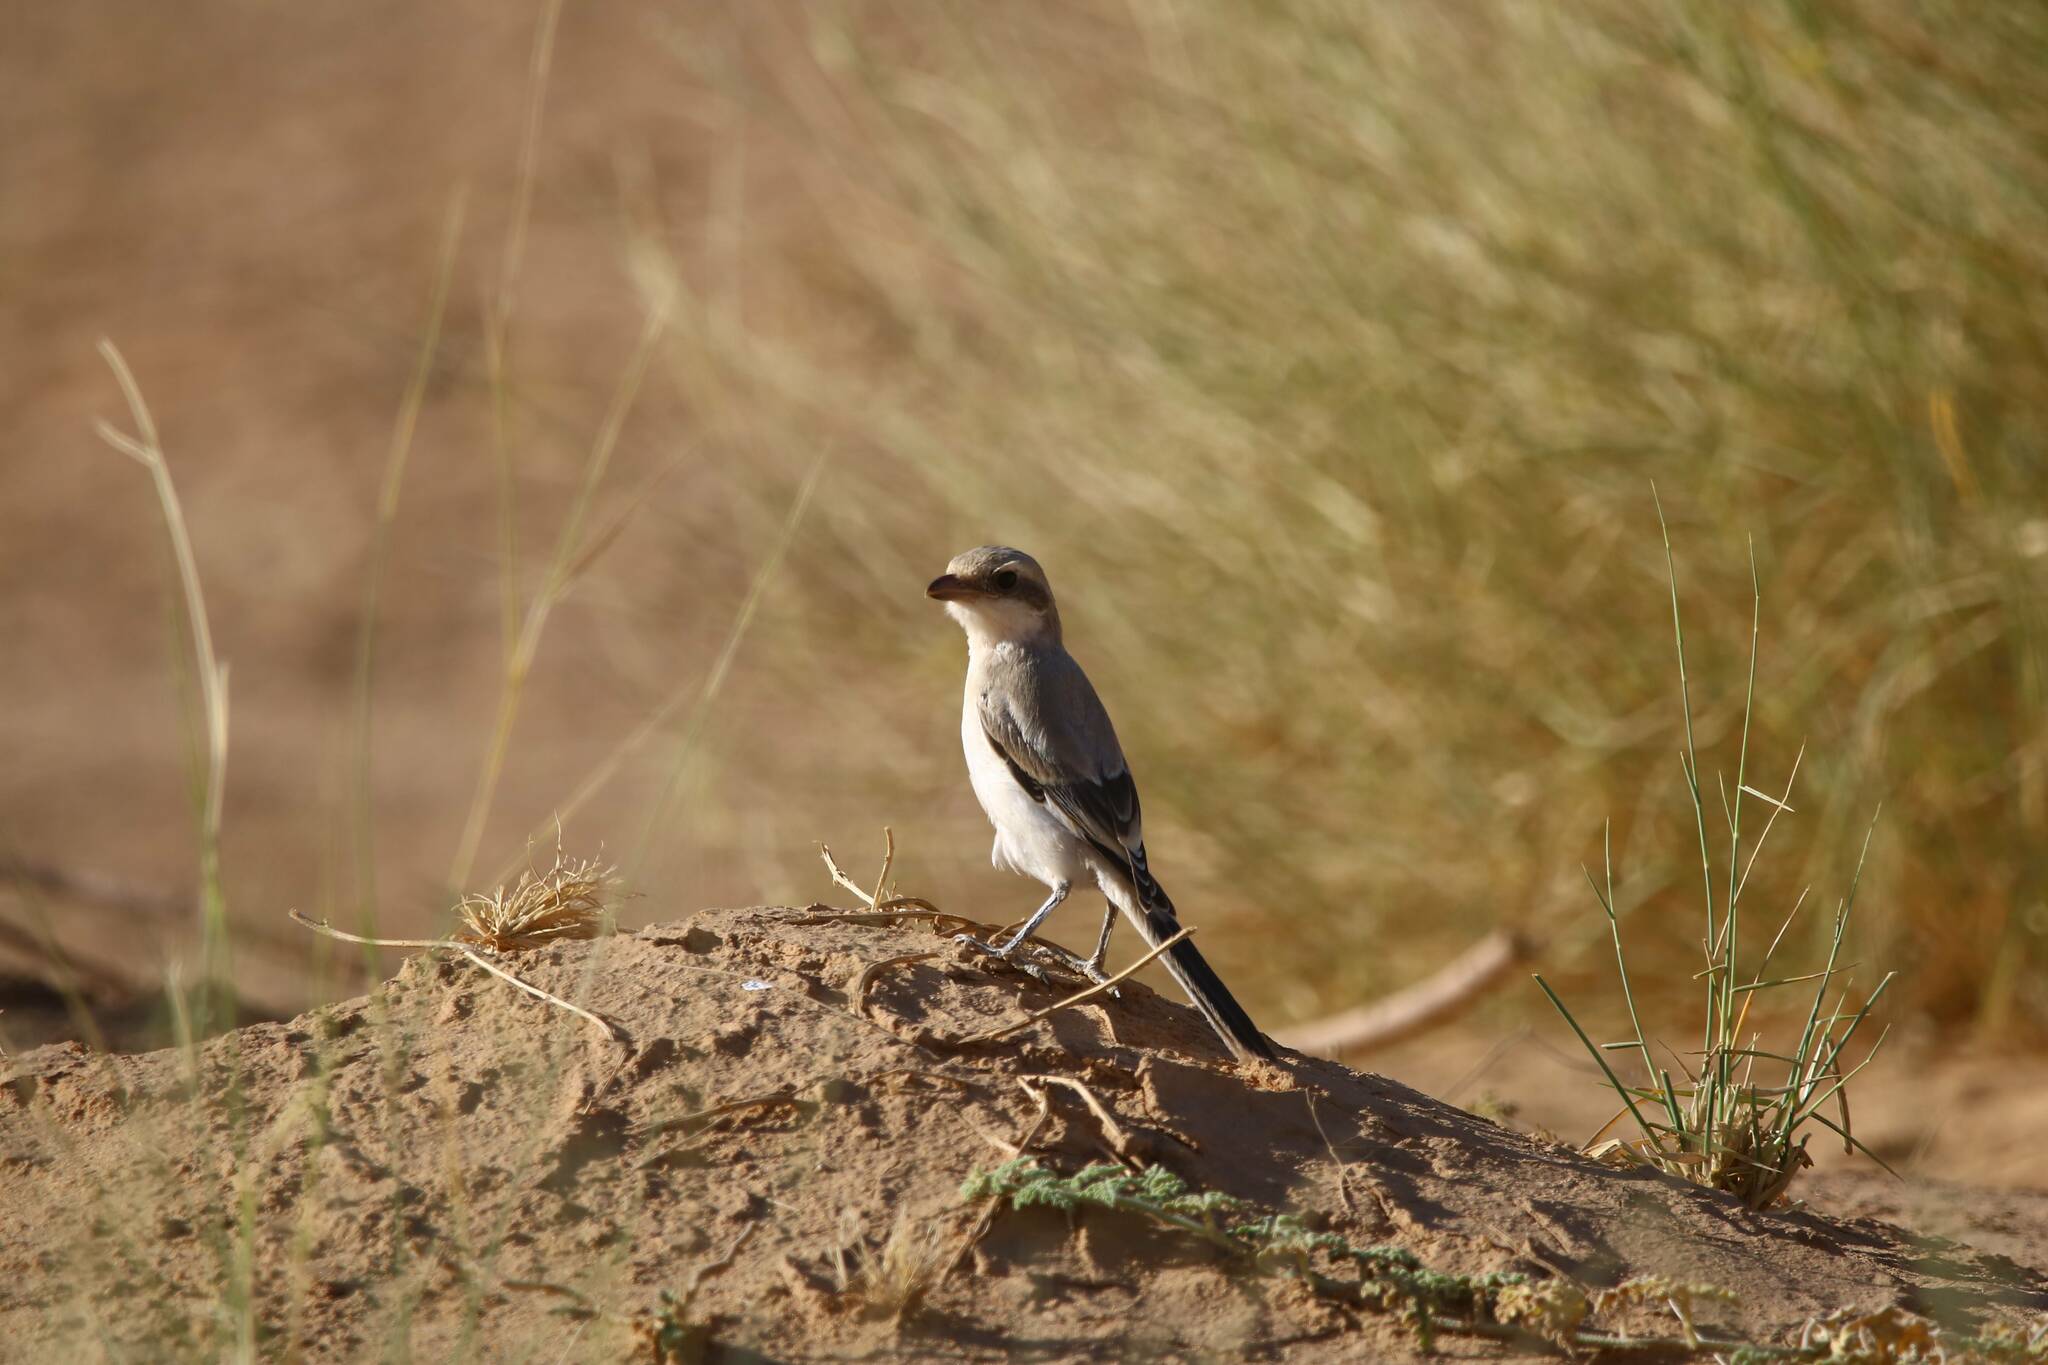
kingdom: Animalia
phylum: Chordata
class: Aves
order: Passeriformes
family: Laniidae
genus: Lanius
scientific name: Lanius excubitor
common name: Great grey shrike
